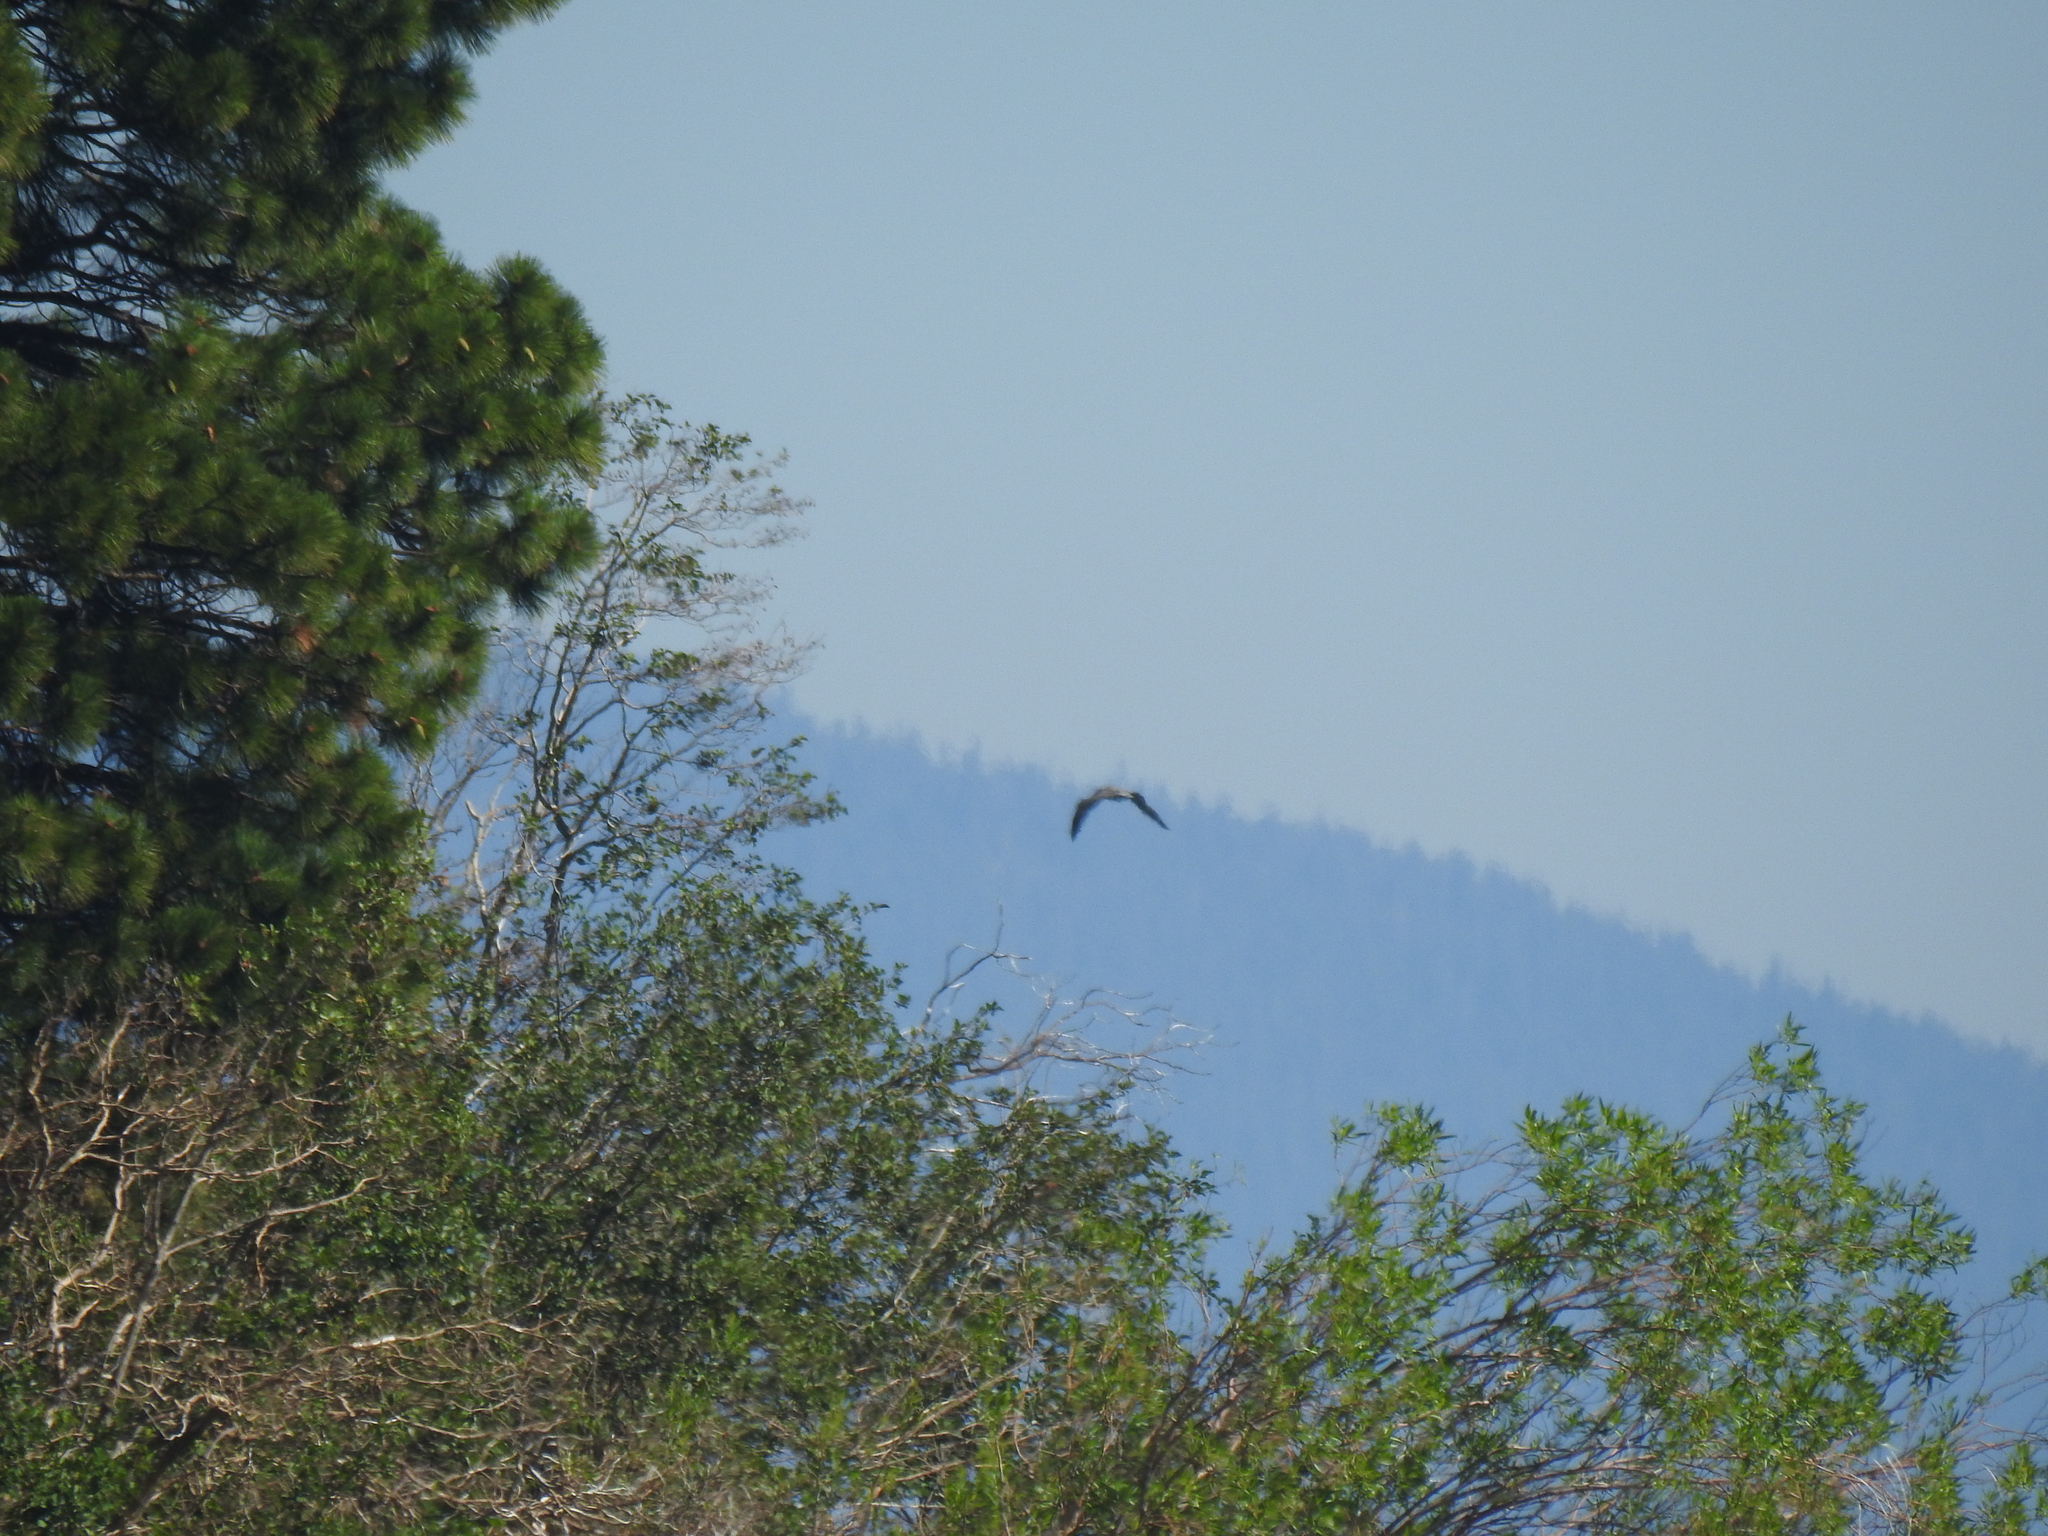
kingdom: Animalia
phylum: Chordata
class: Aves
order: Accipitriformes
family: Pandionidae
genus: Pandion
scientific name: Pandion haliaetus
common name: Osprey
